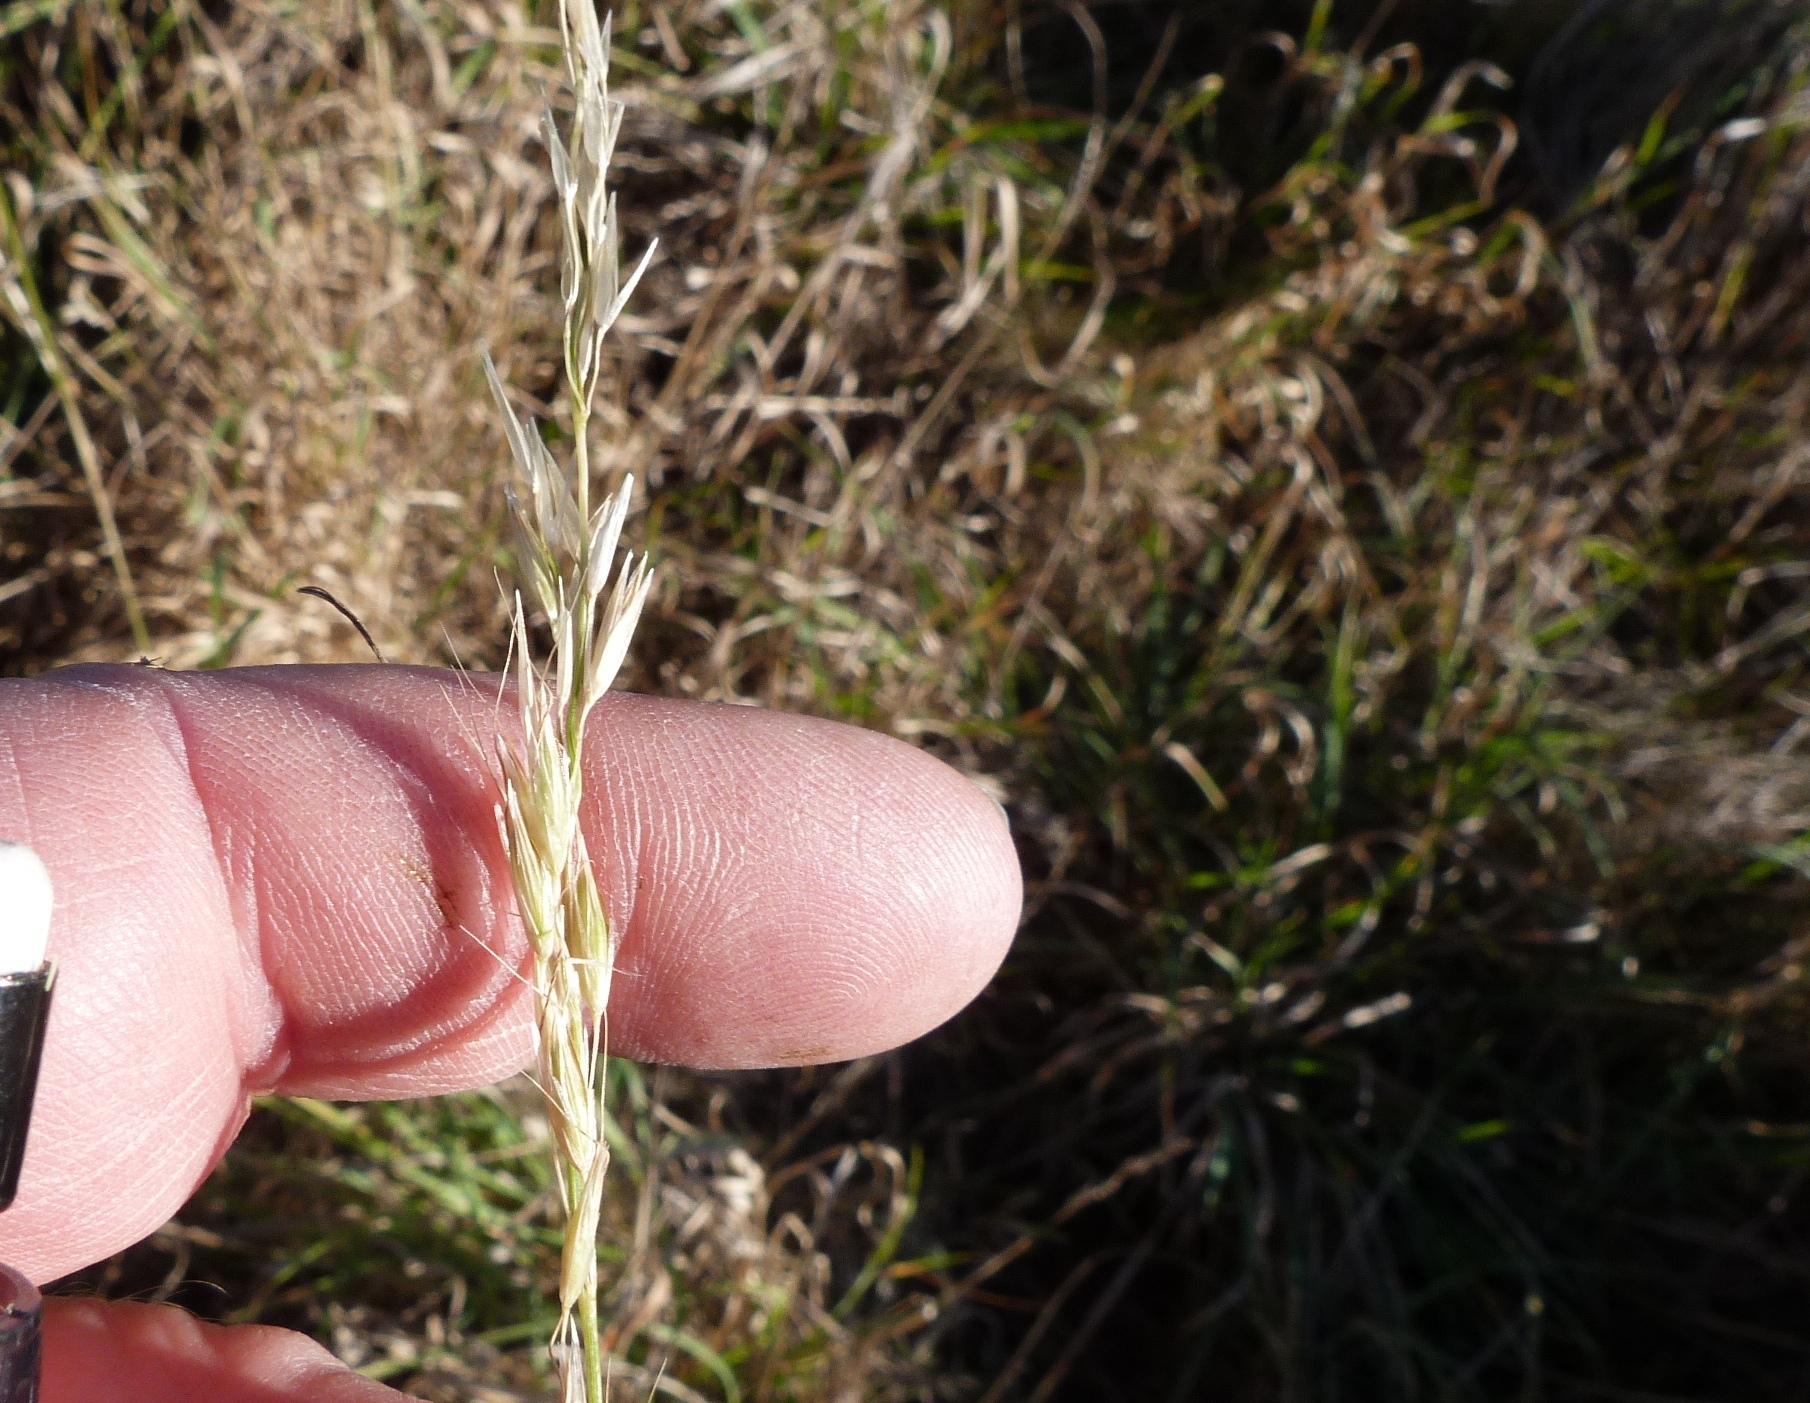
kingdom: Plantae
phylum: Tracheophyta
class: Liliopsida
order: Poales
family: Poaceae
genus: Arrhenatherum
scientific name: Arrhenatherum elatius
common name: Tall oatgrass
